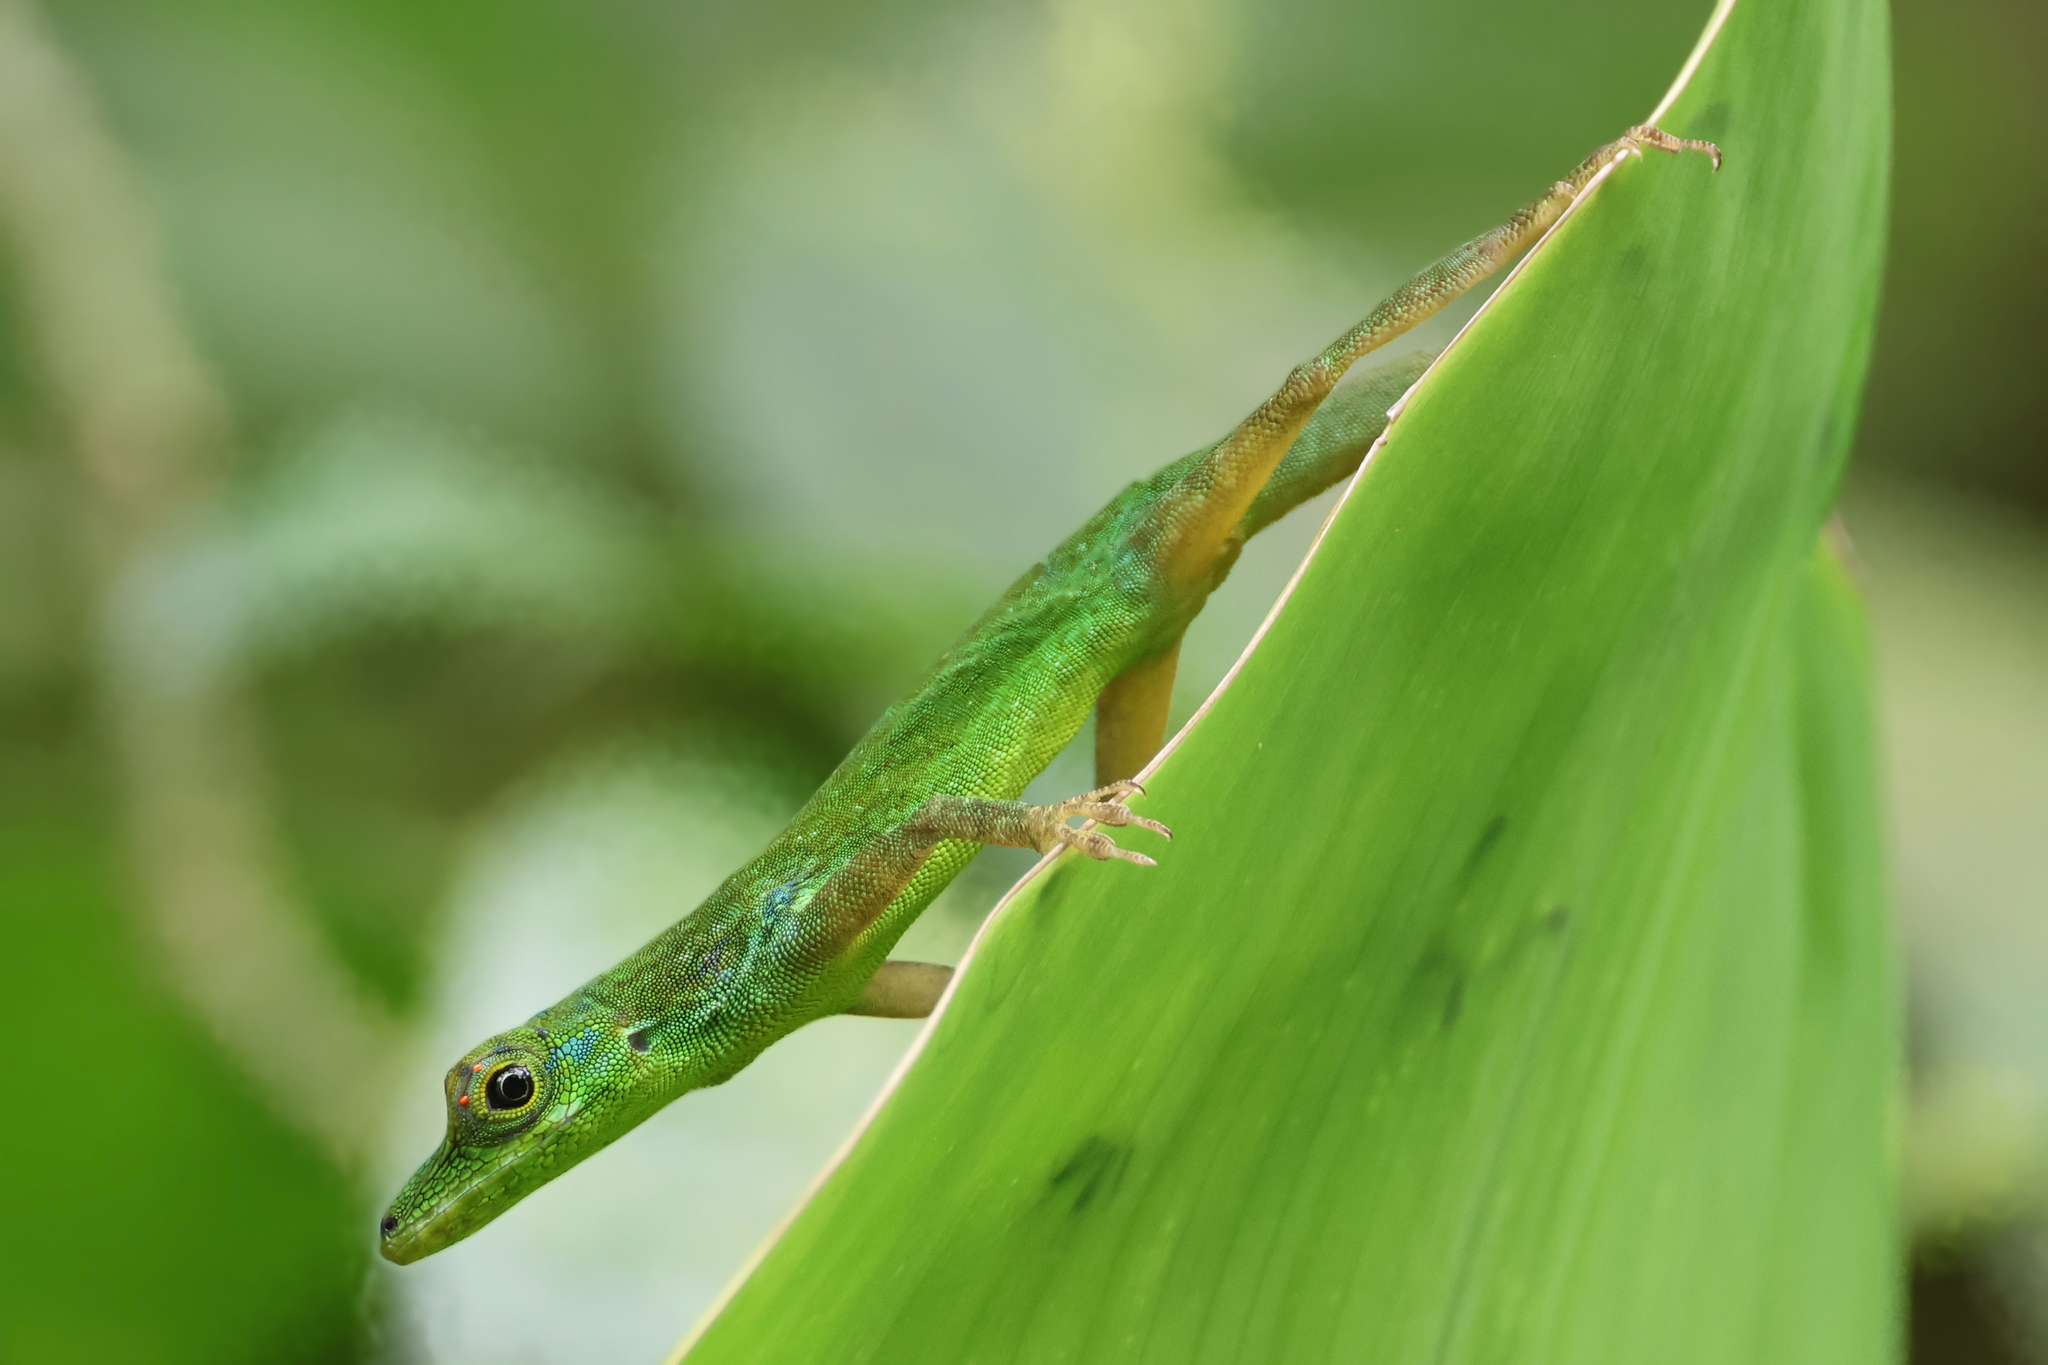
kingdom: Animalia
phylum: Chordata
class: Squamata
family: Dactyloidae
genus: Anolis
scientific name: Anolis roquet
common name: Martinique anole
